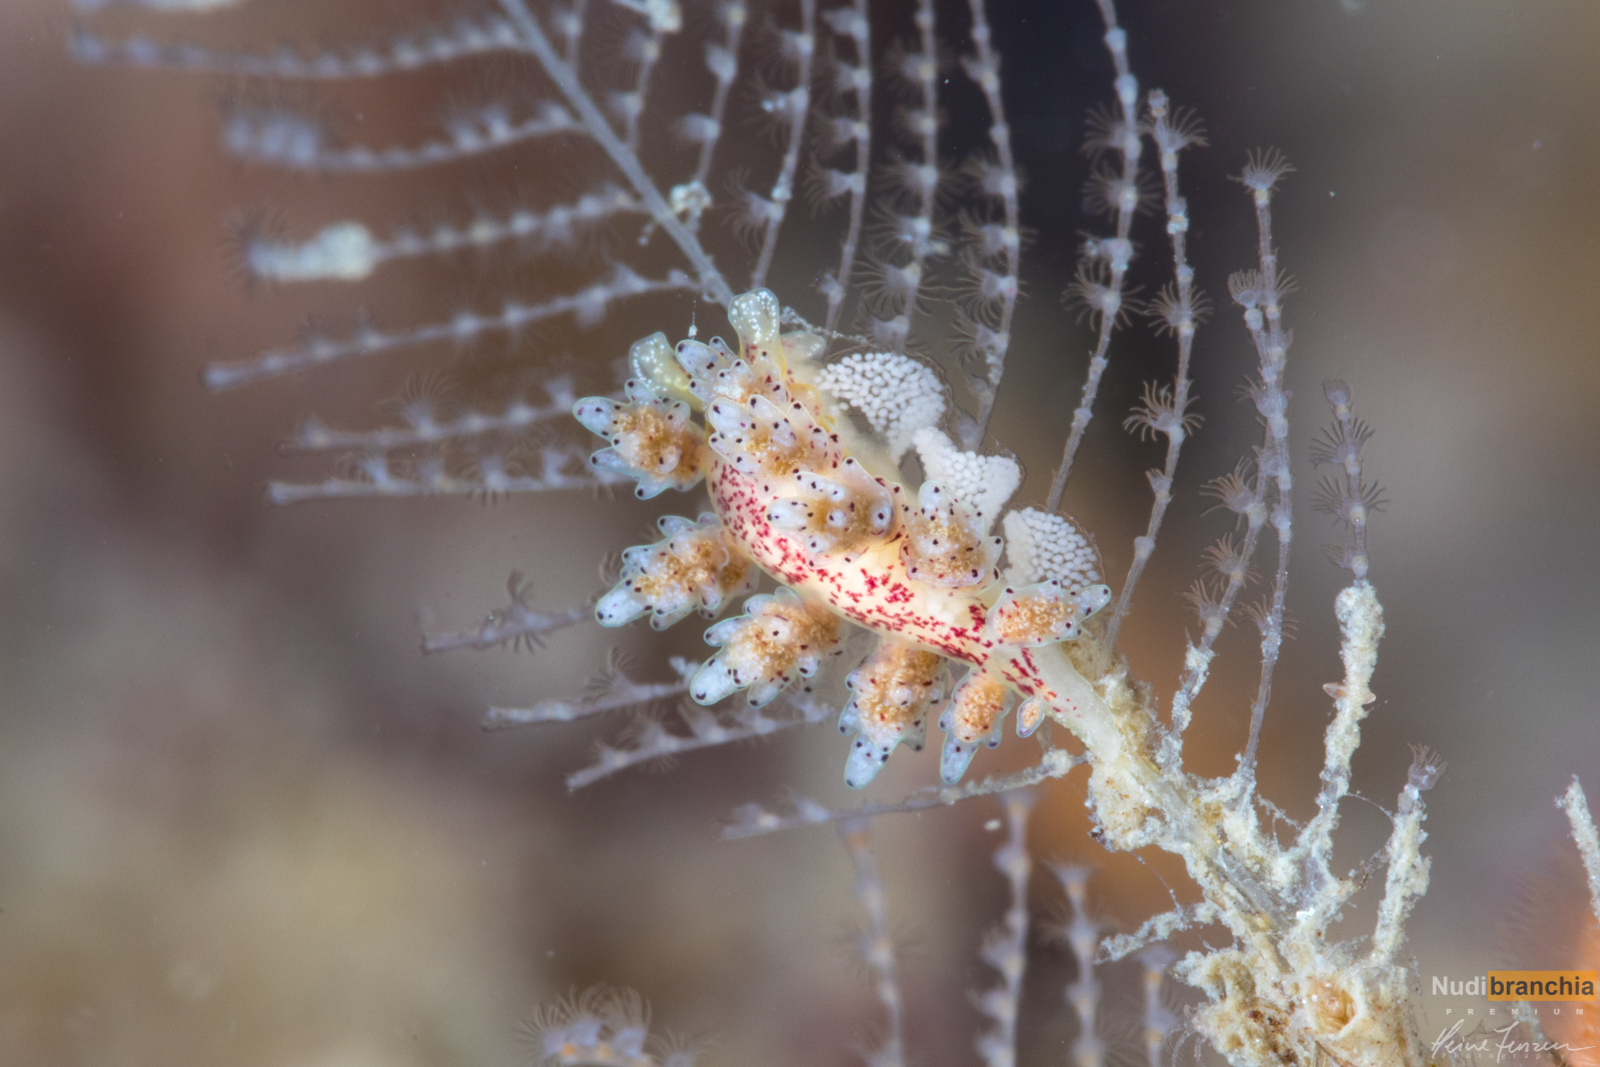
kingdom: Animalia
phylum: Mollusca
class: Gastropoda
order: Nudibranchia
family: Dotidae
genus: Doto
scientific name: Doto coronata
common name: Coronate doto
